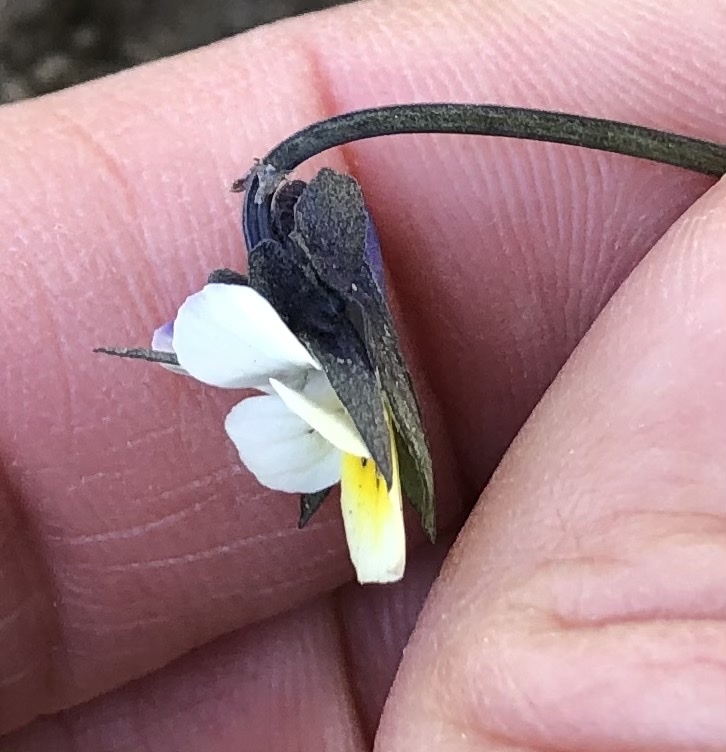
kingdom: Plantae
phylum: Tracheophyta
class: Magnoliopsida
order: Malpighiales
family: Violaceae
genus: Viola
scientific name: Viola arvensis
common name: Field pansy
